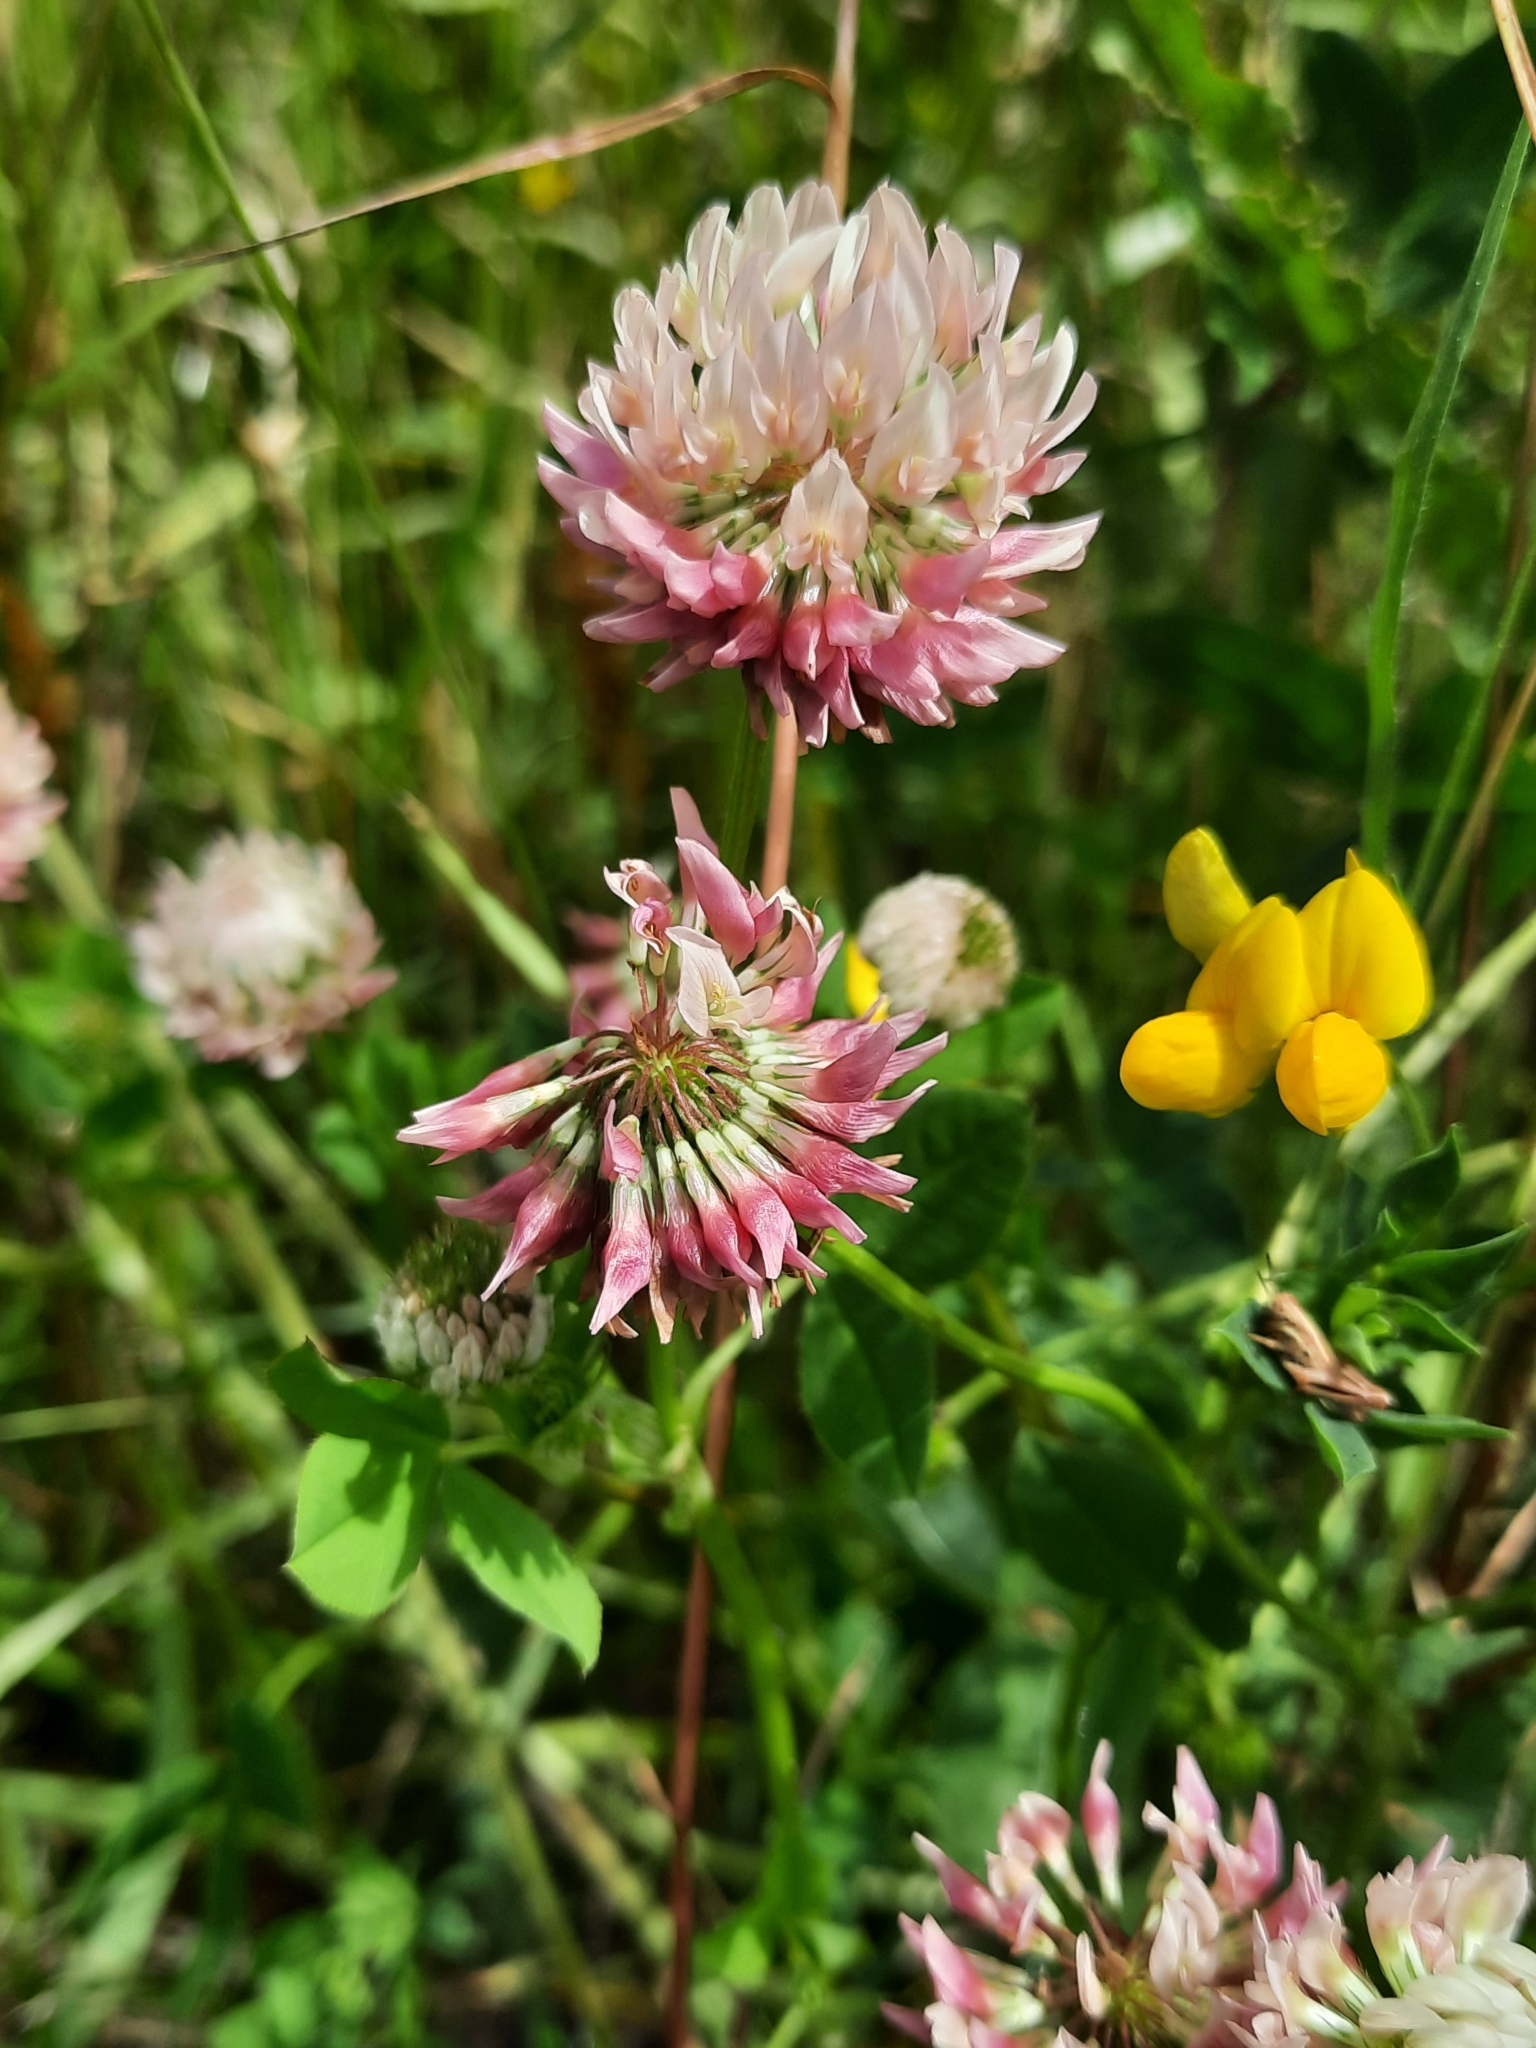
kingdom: Plantae
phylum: Tracheophyta
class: Magnoliopsida
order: Fabales
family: Fabaceae
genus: Trifolium
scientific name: Trifolium hybridum
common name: Alsike clover
